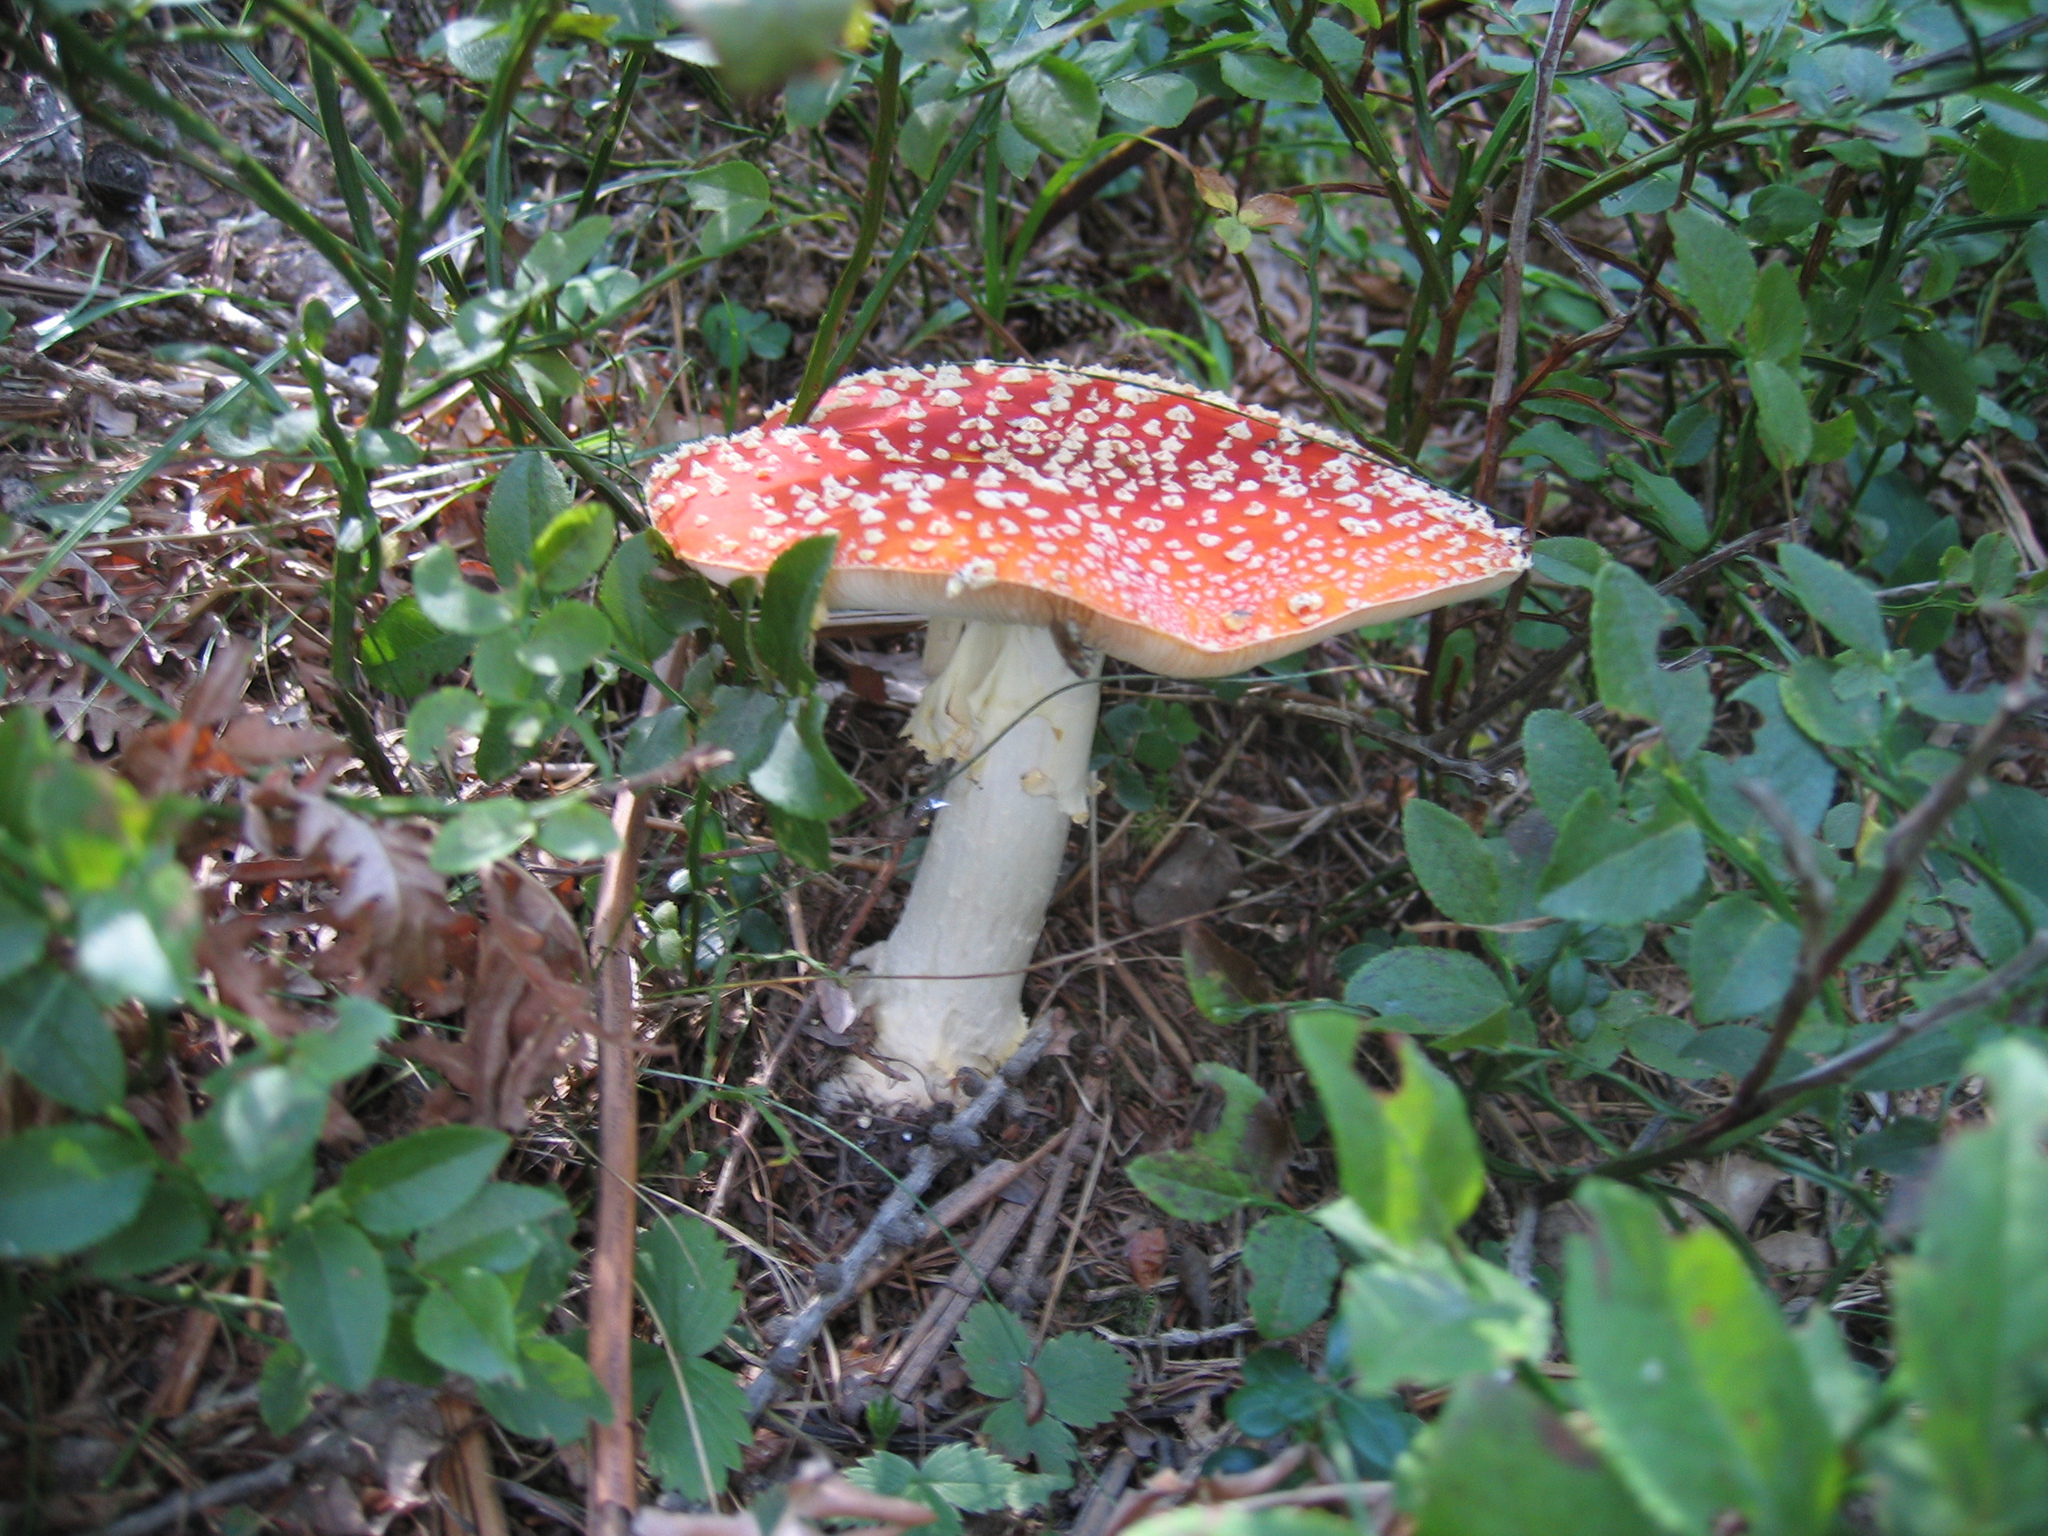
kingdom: Fungi
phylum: Basidiomycota
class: Agaricomycetes
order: Agaricales
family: Amanitaceae
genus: Amanita
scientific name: Amanita muscaria
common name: Fly agaric
